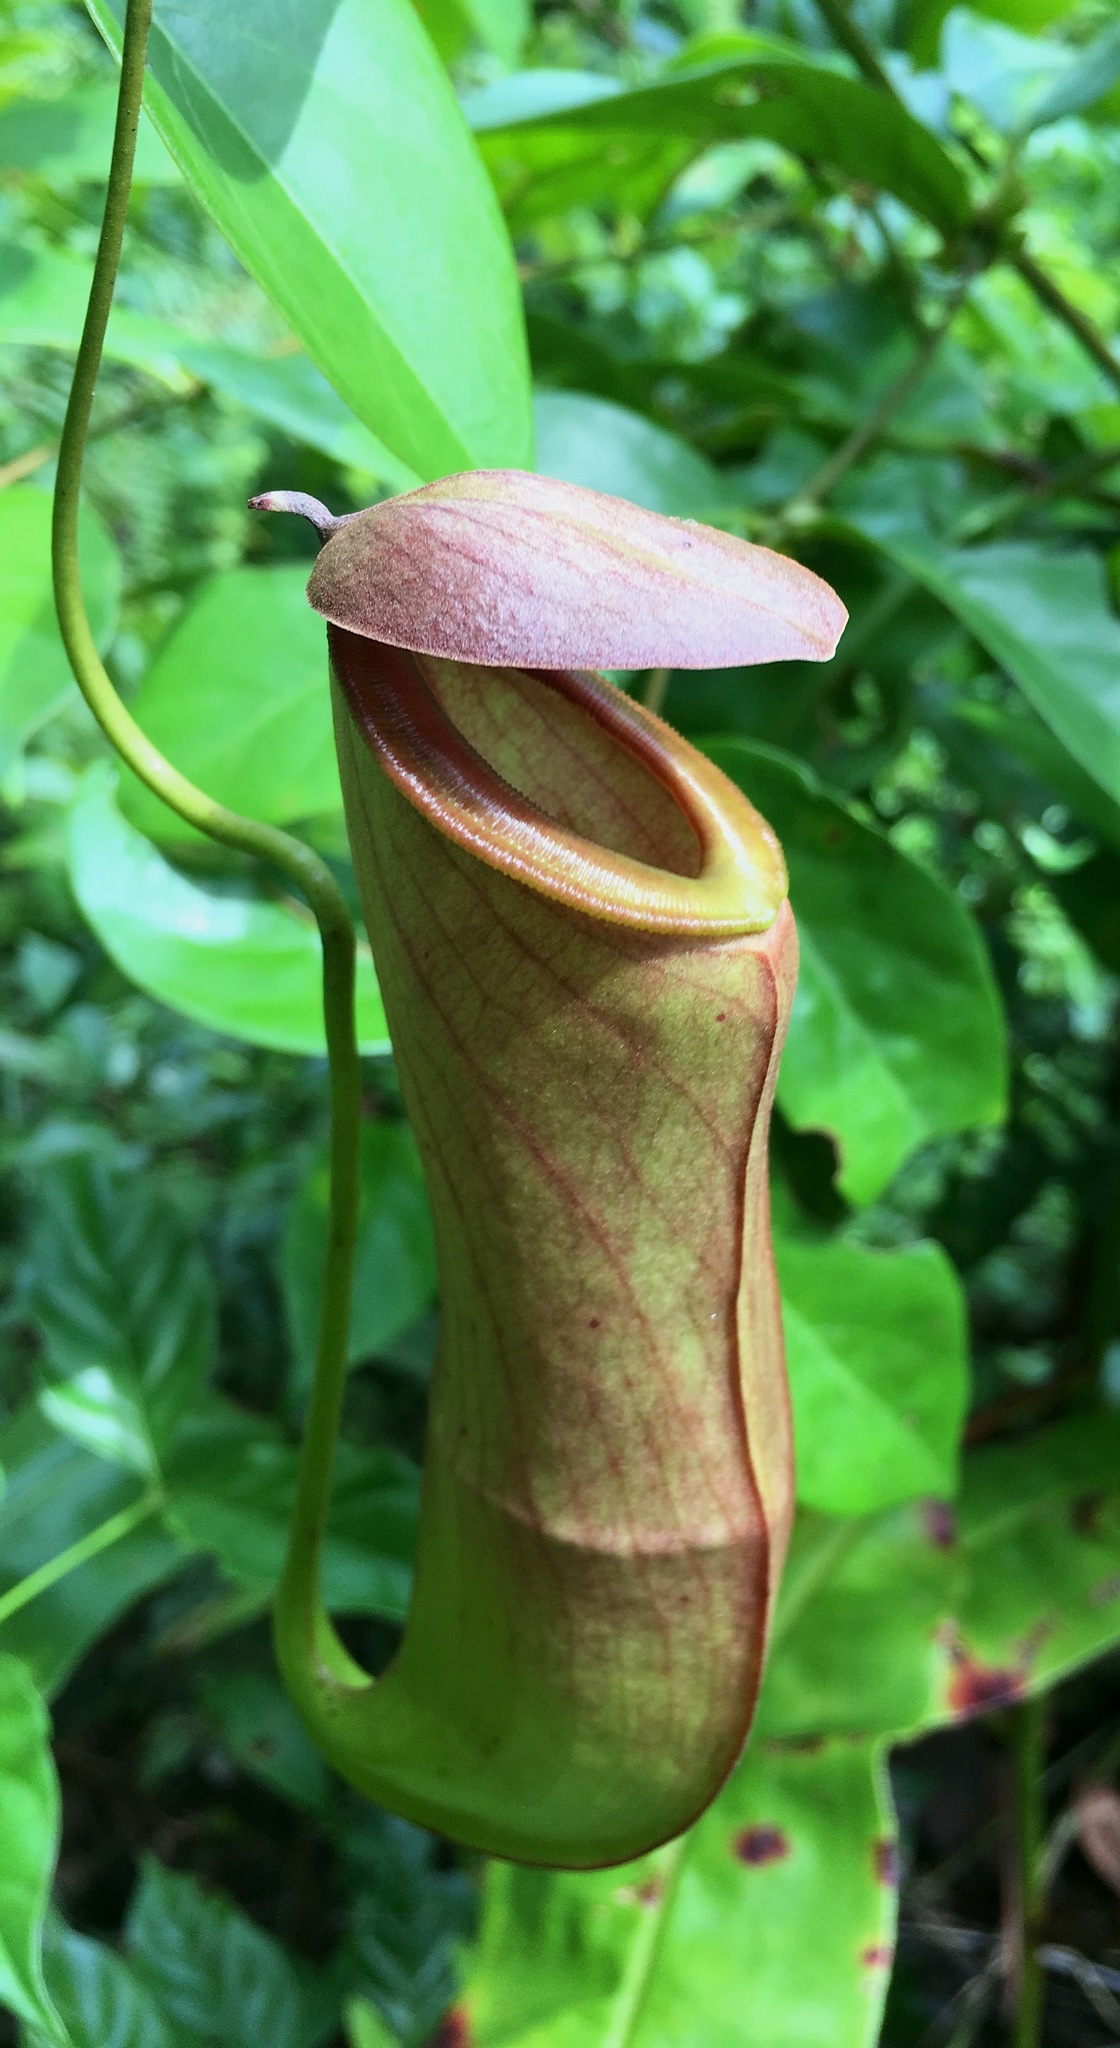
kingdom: Plantae
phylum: Tracheophyta
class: Magnoliopsida
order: Caryophyllales
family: Nepenthaceae
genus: Nepenthes
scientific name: Nepenthes mirabilis
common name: Tropical pitcherplant
